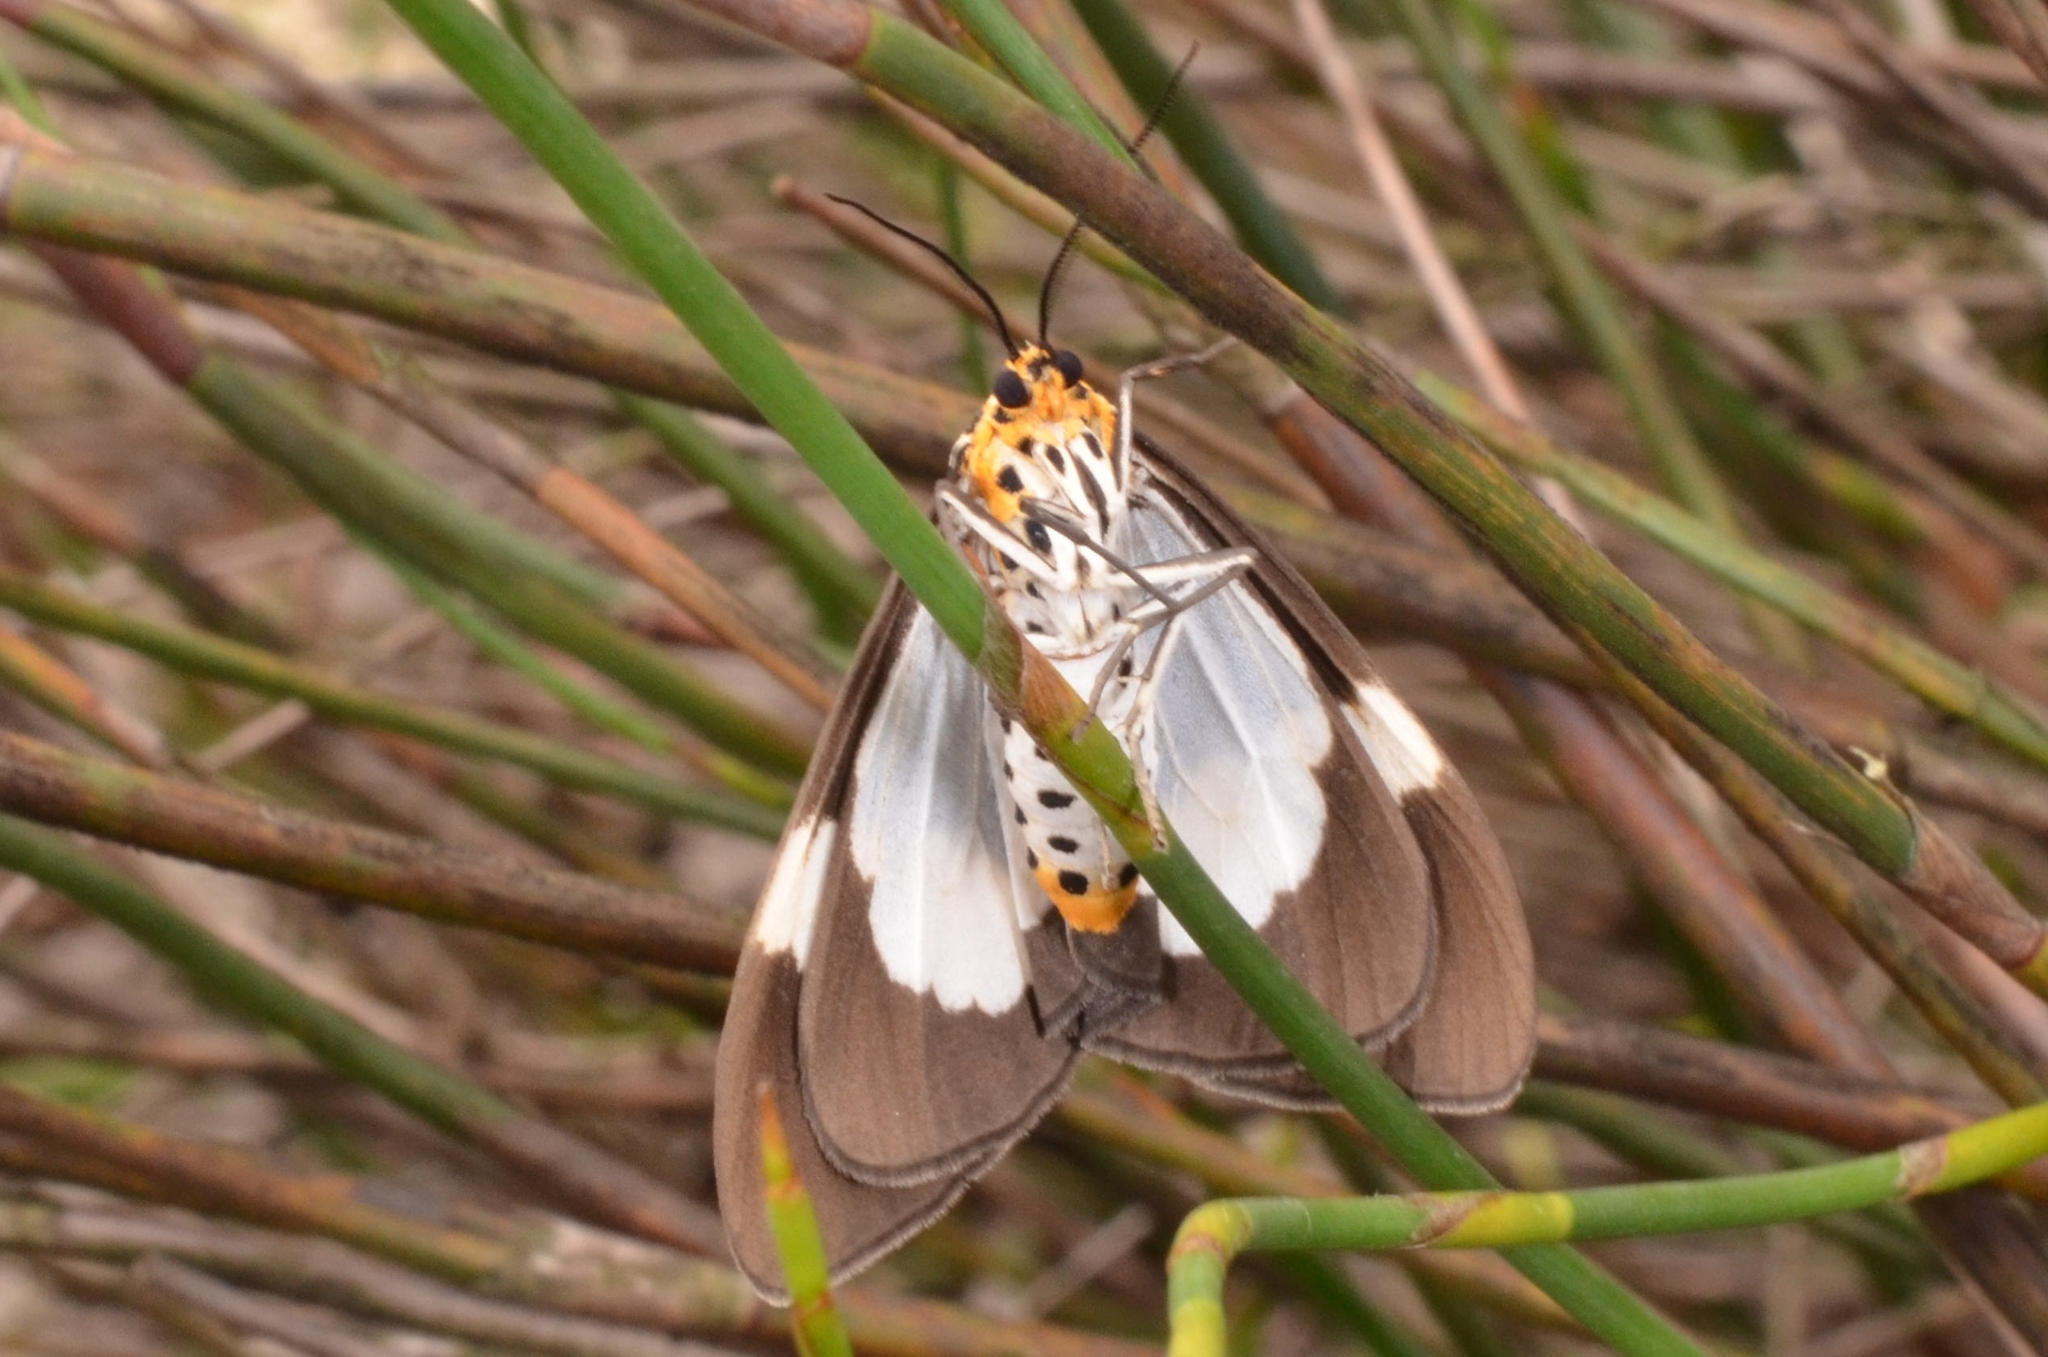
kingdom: Animalia
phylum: Arthropoda
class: Insecta
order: Lepidoptera
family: Erebidae
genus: Nyctemera
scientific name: Nyctemera lacticinia
